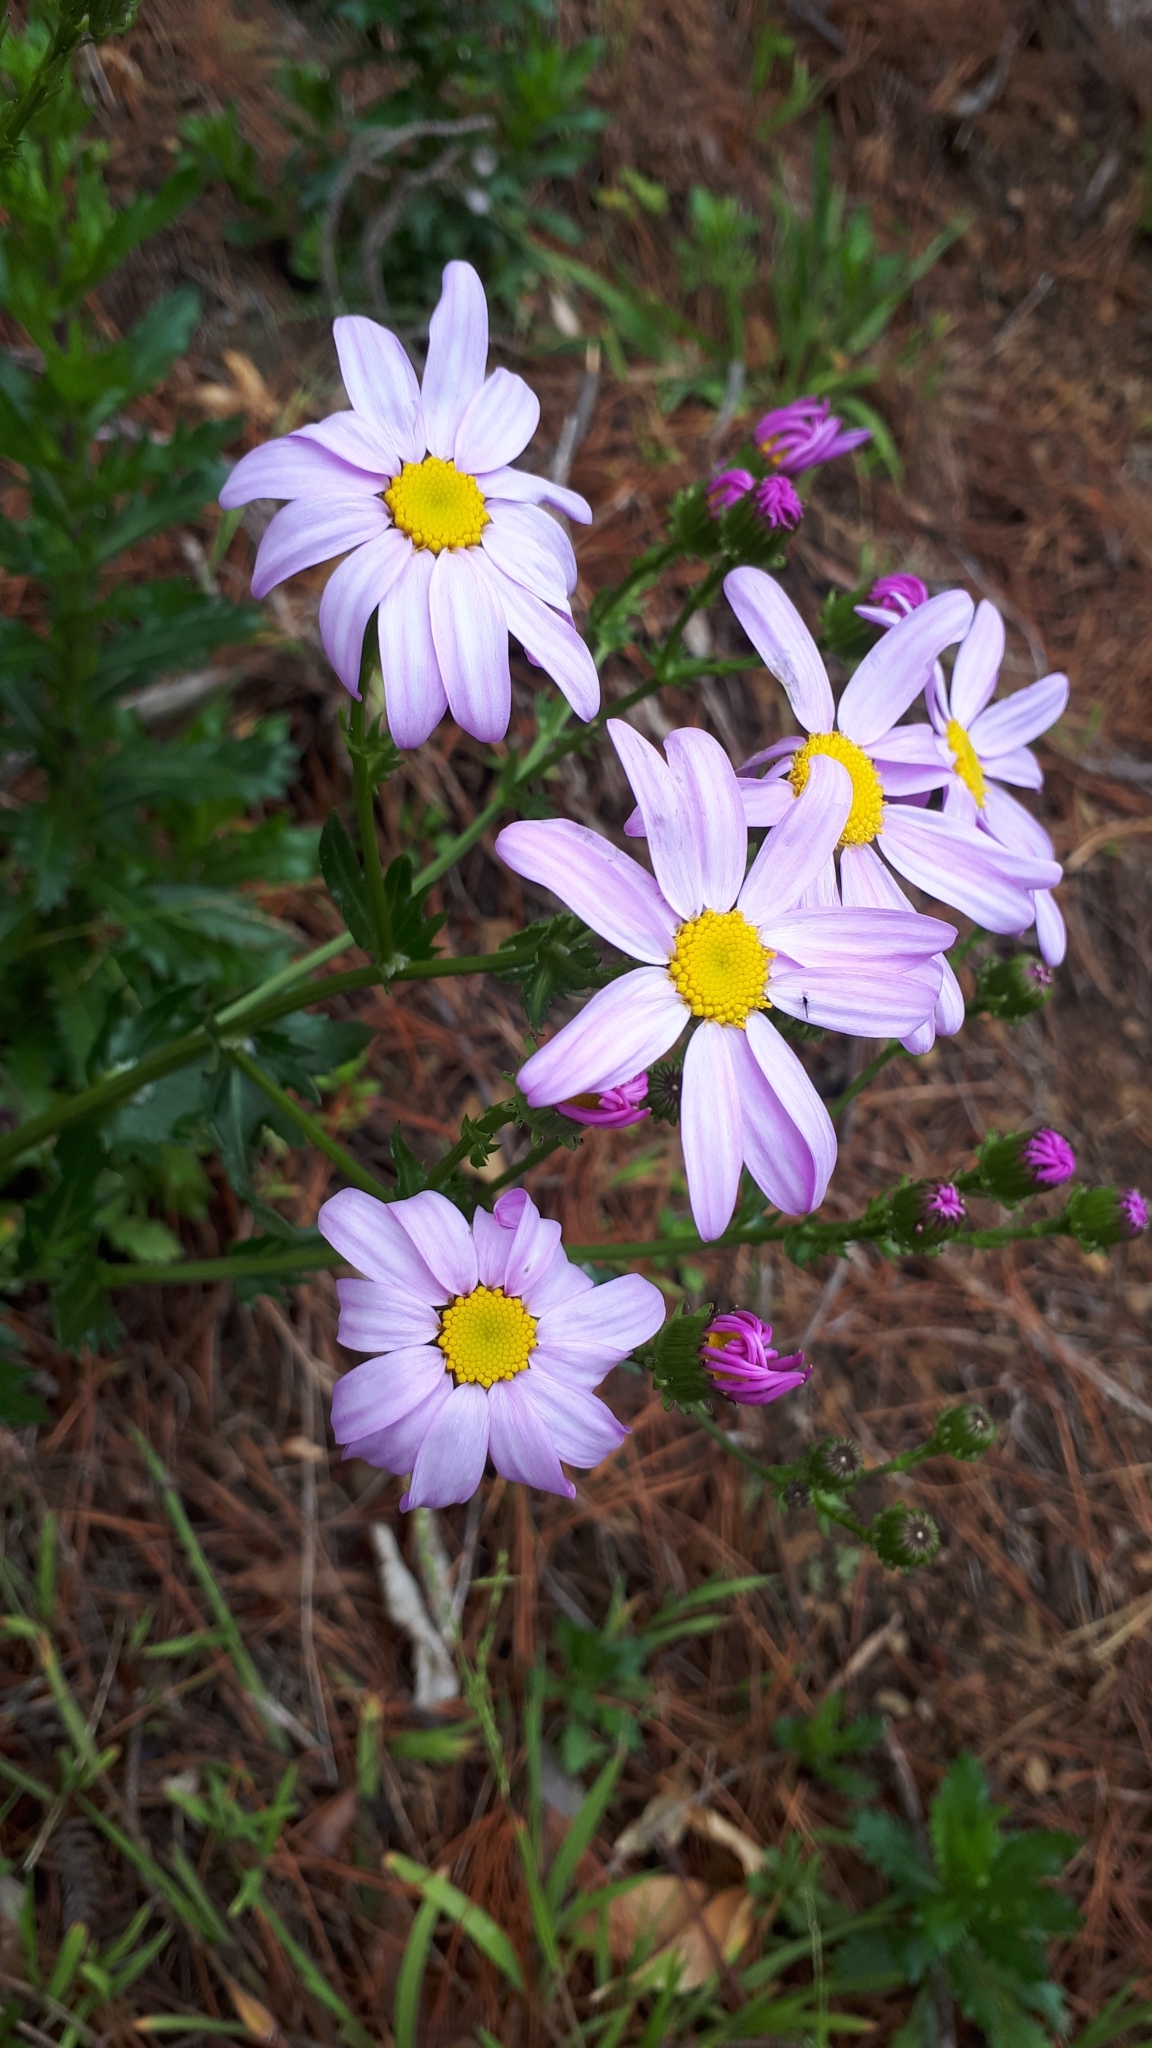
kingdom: Plantae
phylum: Tracheophyta
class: Magnoliopsida
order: Asterales
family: Asteraceae
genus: Senecio
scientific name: Senecio glastifolius
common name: Woad-leaved ragwort
